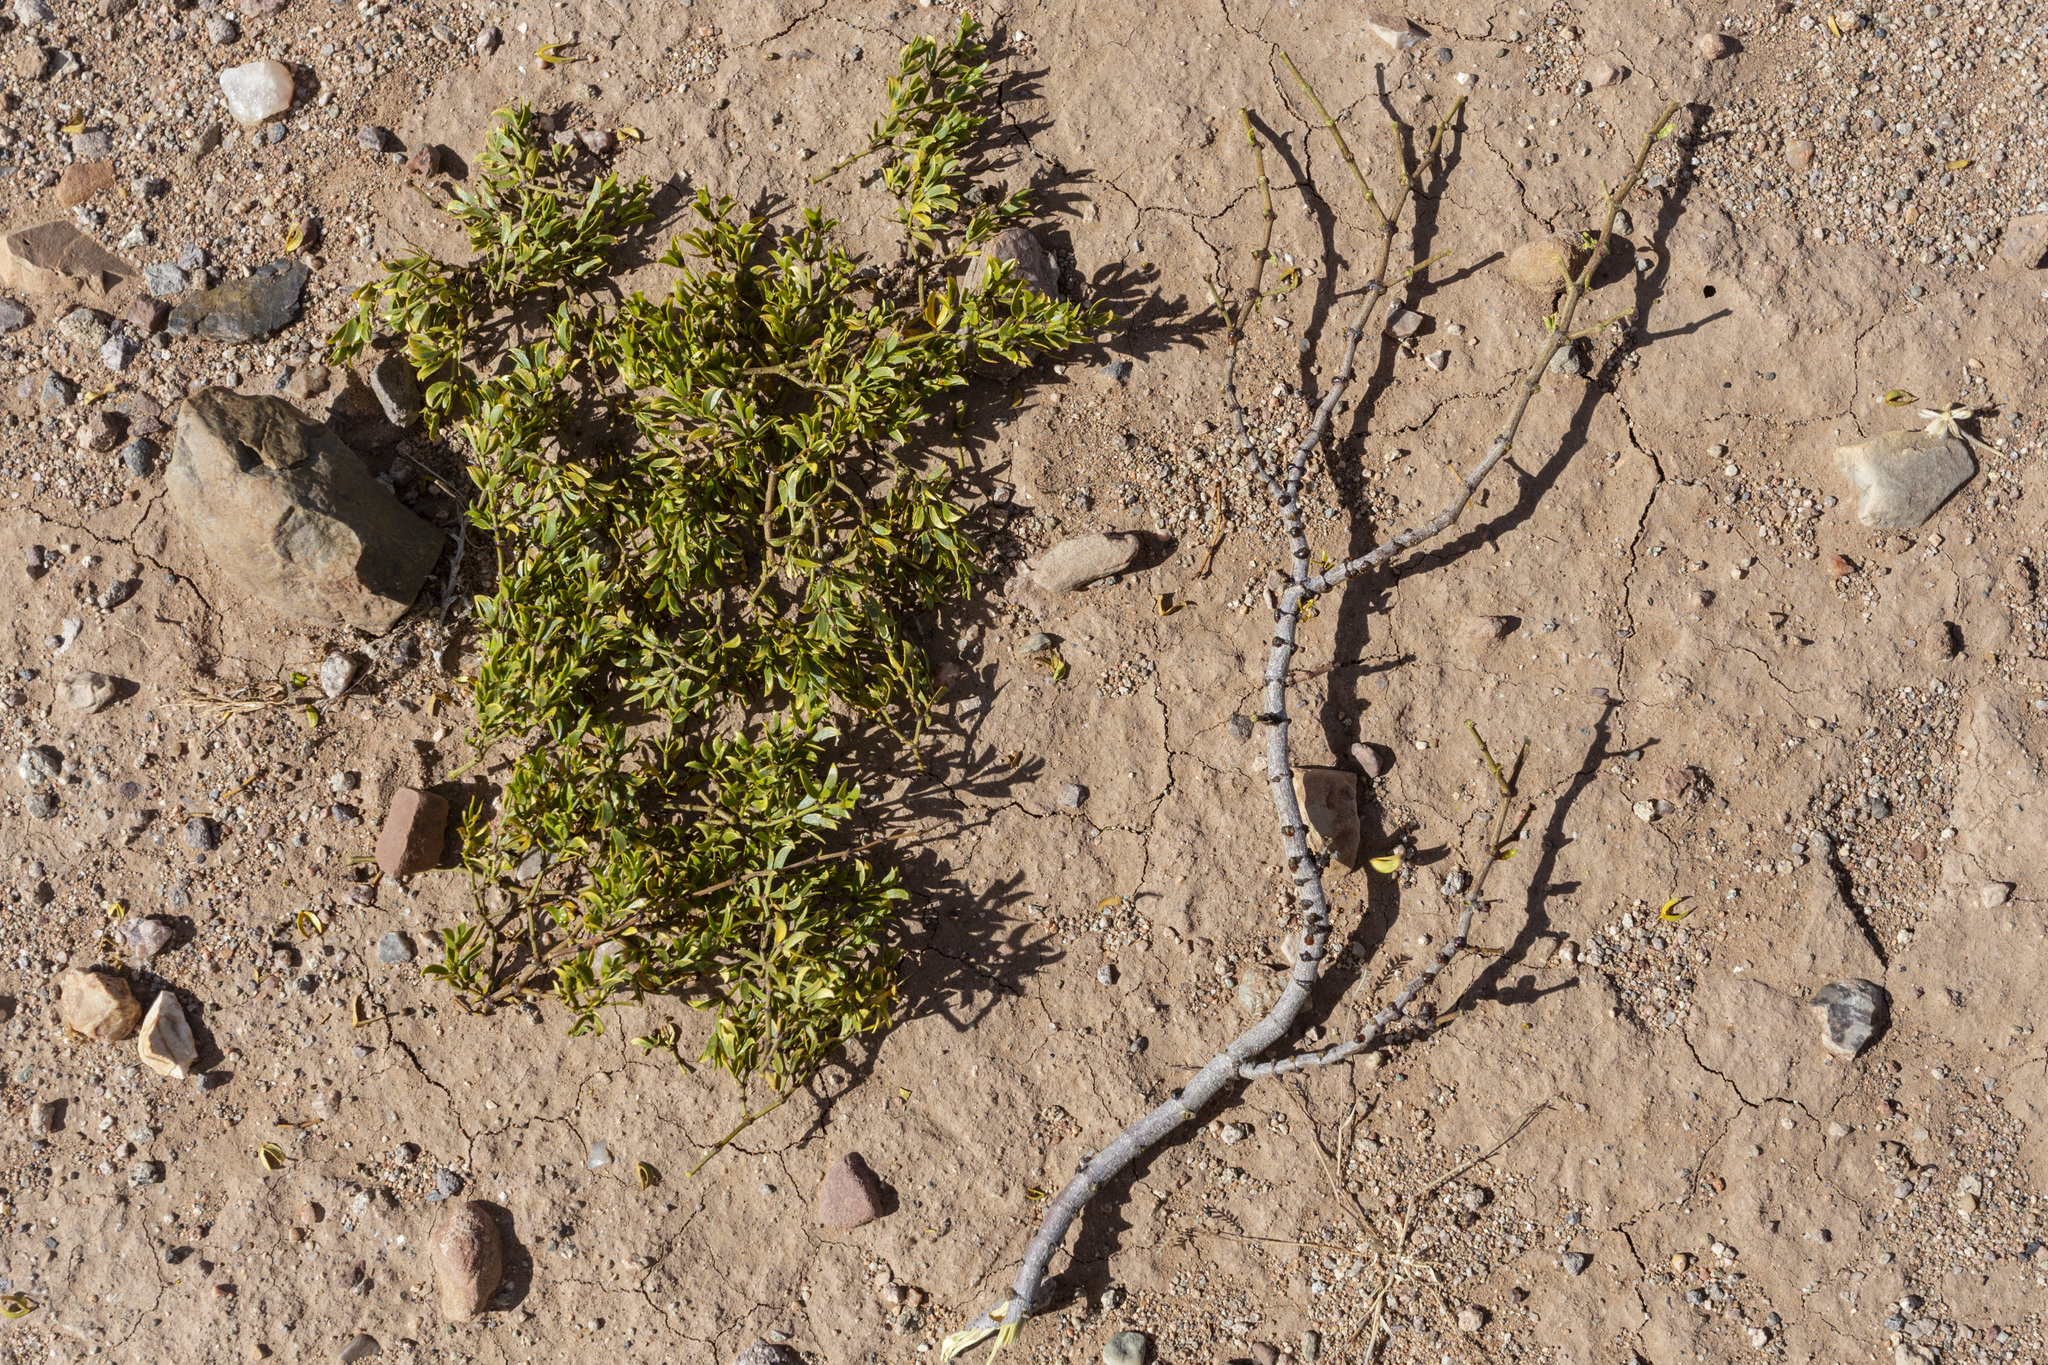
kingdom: Plantae
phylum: Tracheophyta
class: Magnoliopsida
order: Zygophyllales
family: Zygophyllaceae
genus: Larrea
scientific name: Larrea tridentata
